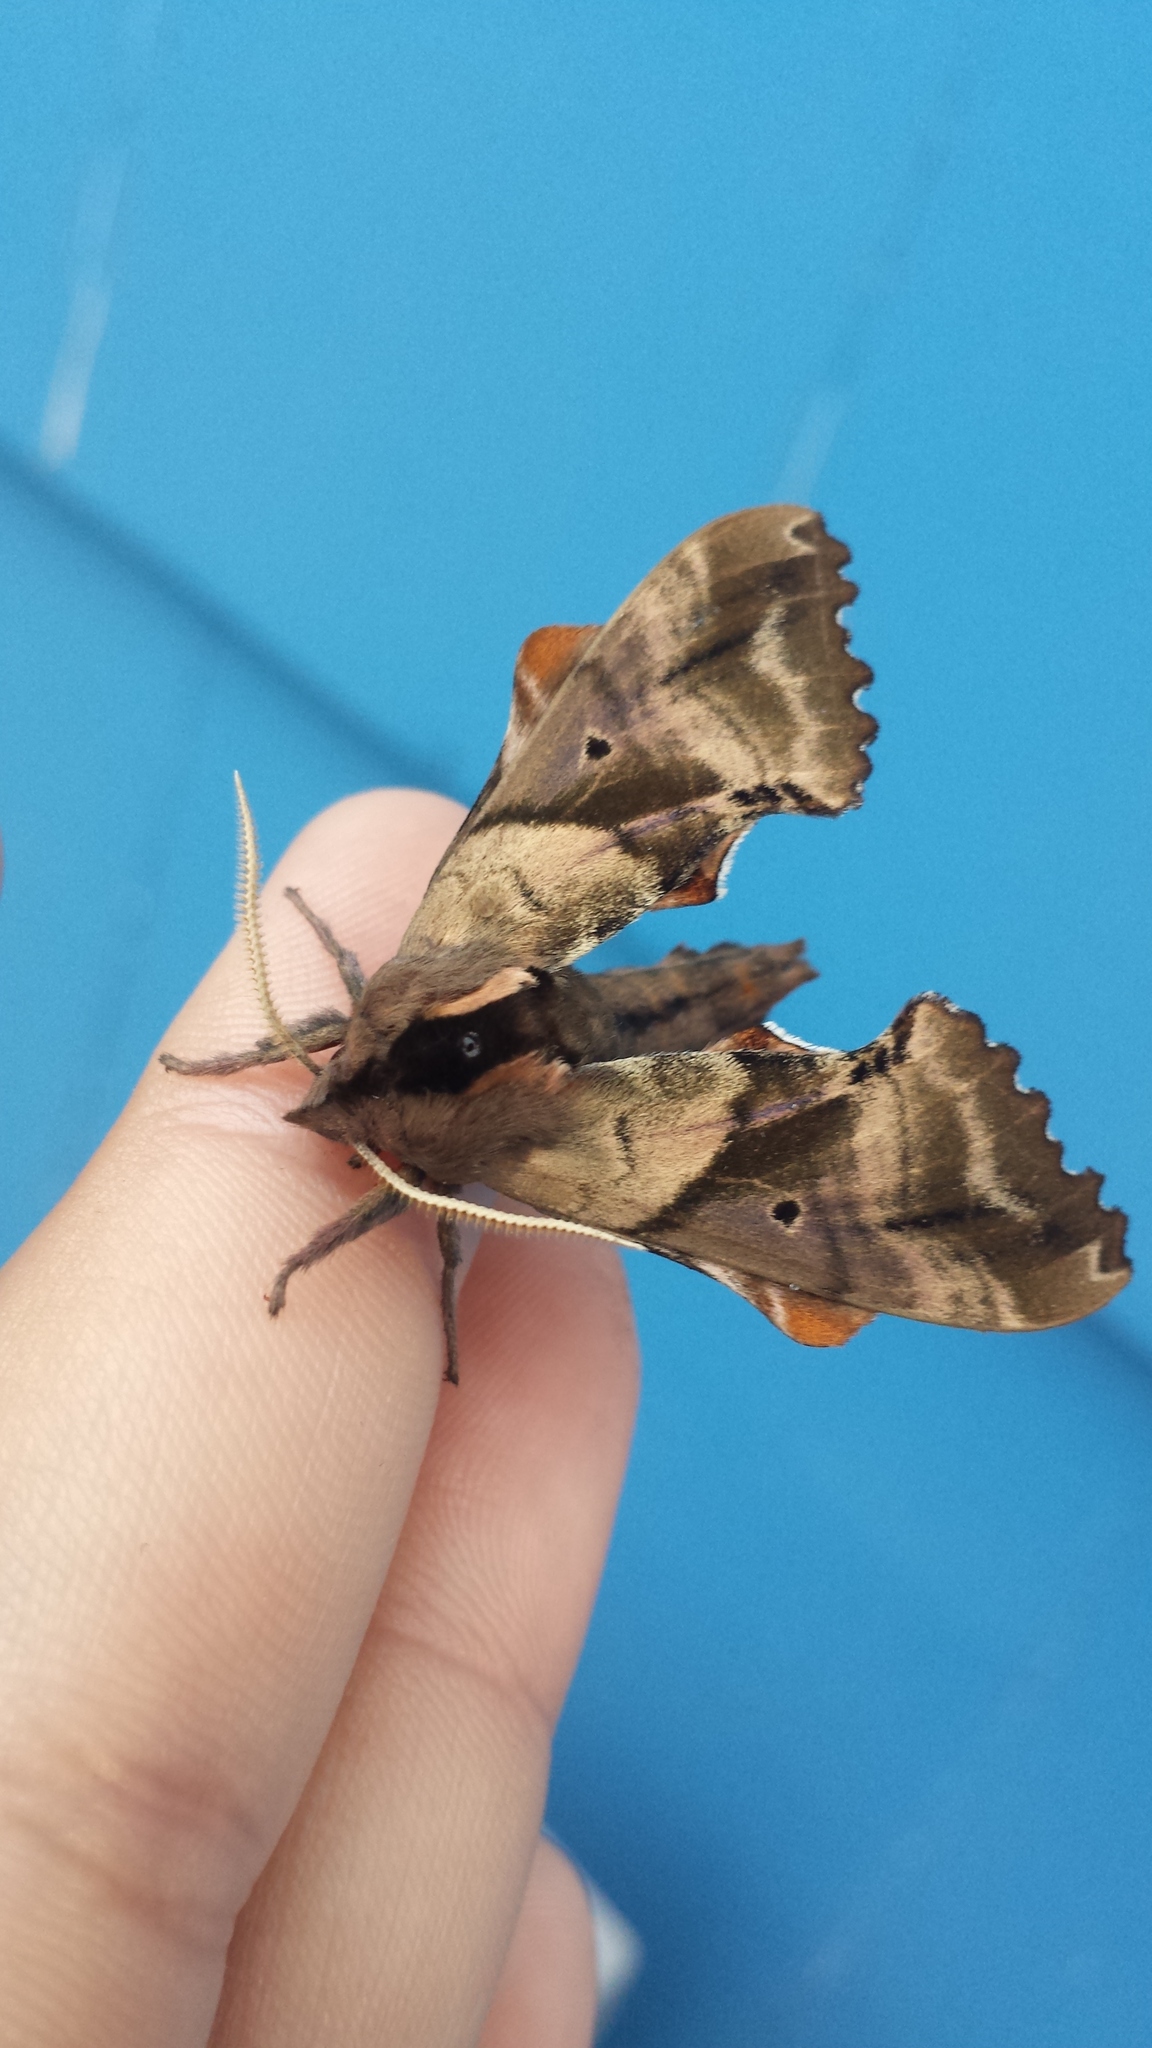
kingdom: Animalia
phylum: Arthropoda
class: Insecta
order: Lepidoptera
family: Sphingidae
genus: Paonias
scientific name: Paonias excaecata
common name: Blind-eyed sphinx
